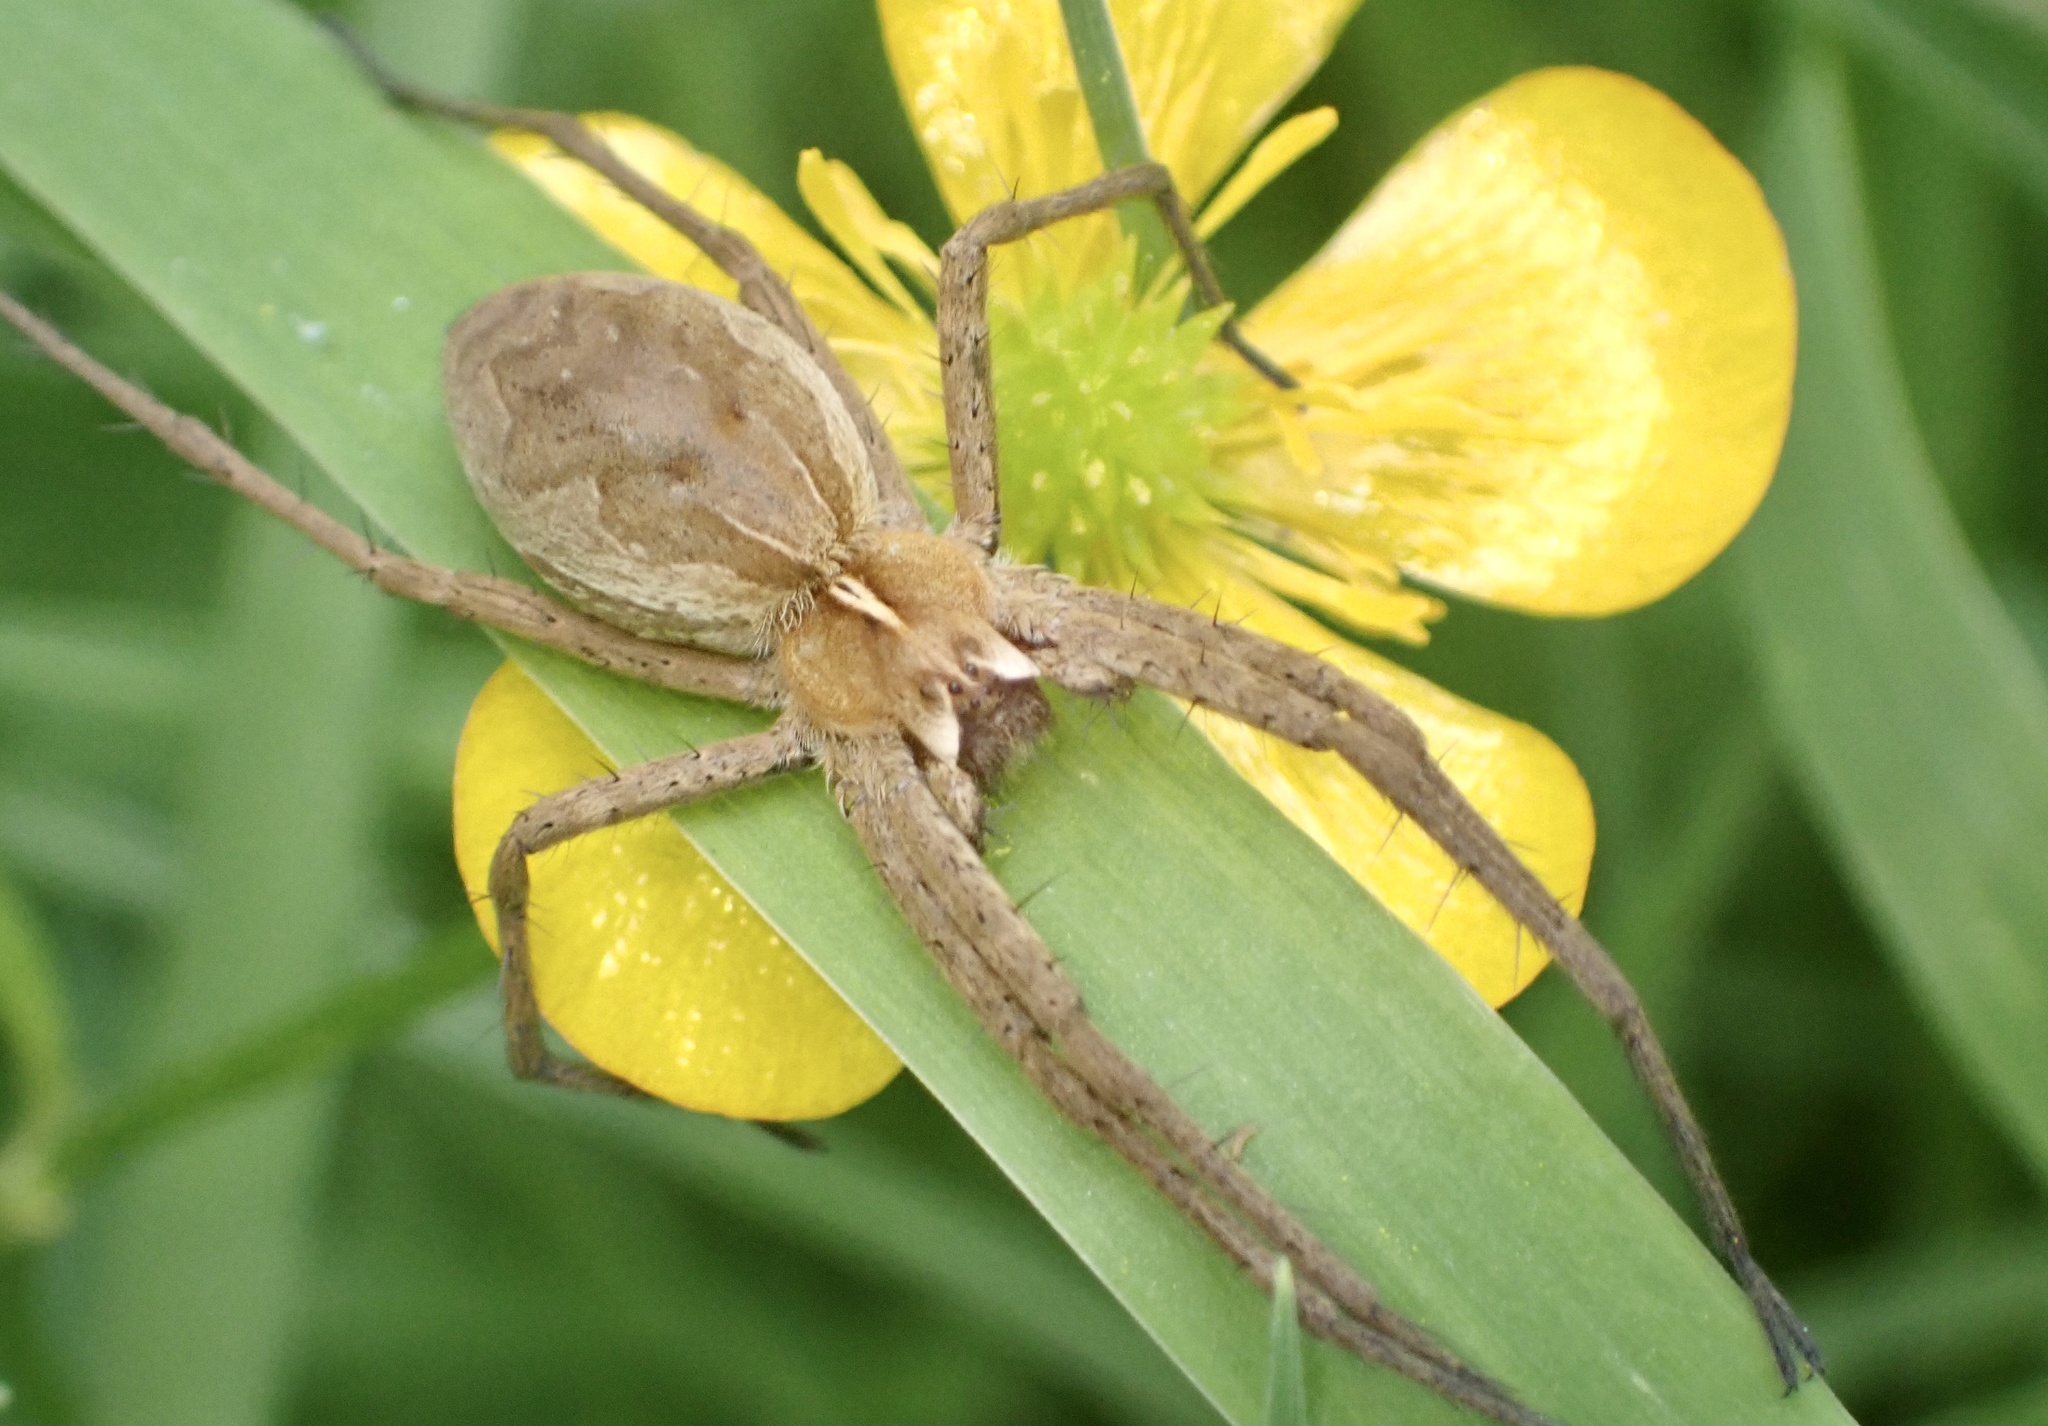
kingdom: Animalia
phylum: Arthropoda
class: Arachnida
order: Araneae
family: Pisauridae
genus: Pisaura
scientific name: Pisaura mirabilis
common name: Tent spider
